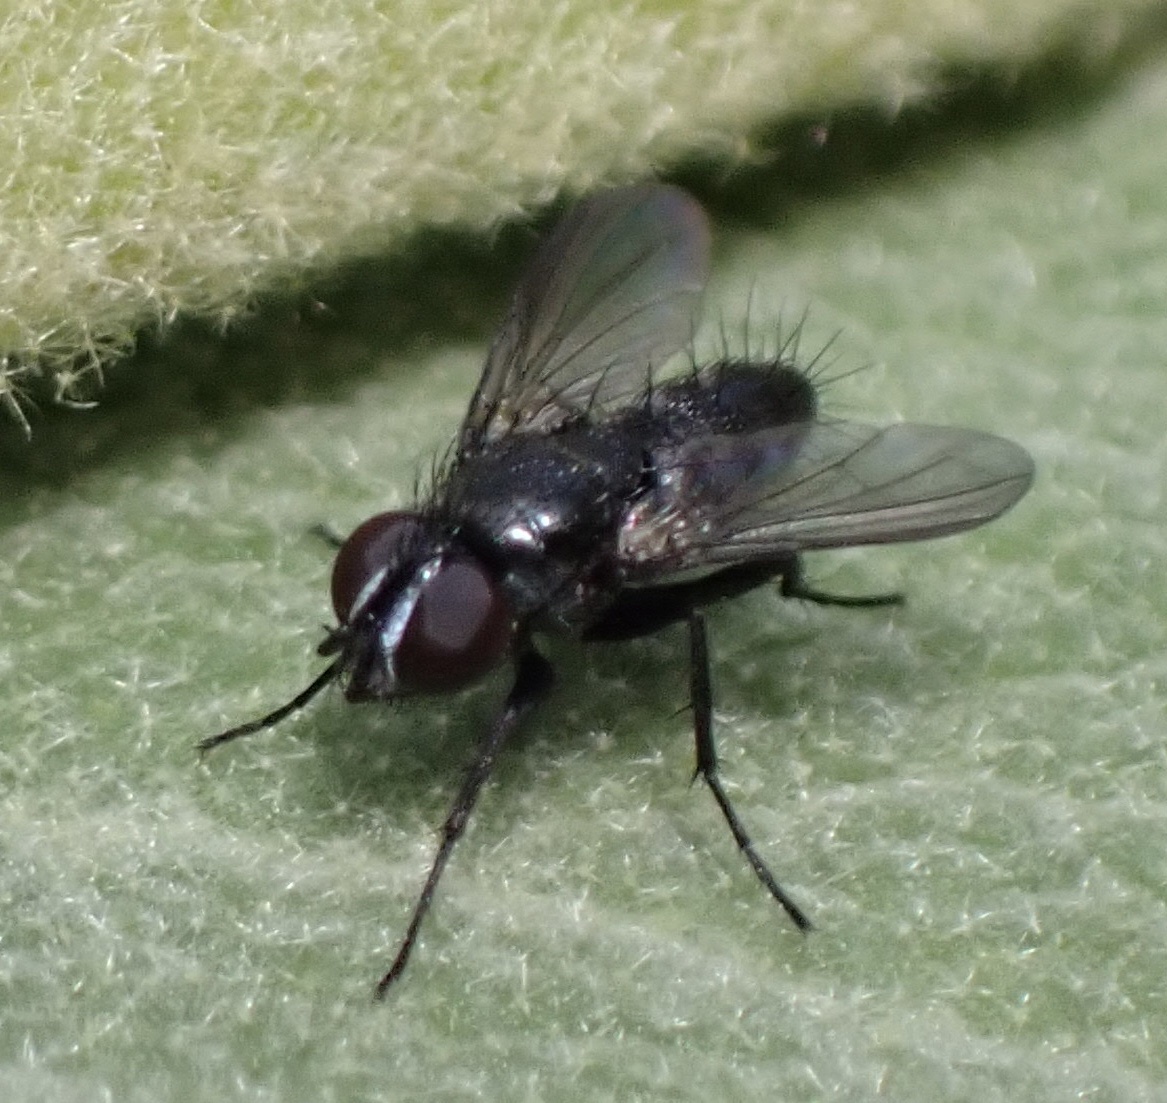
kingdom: Animalia
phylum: Arthropoda
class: Insecta
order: Diptera
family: Calliphoridae
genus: Rhinophora
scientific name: Rhinophora lepida
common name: Pouting woodlouse-fly
